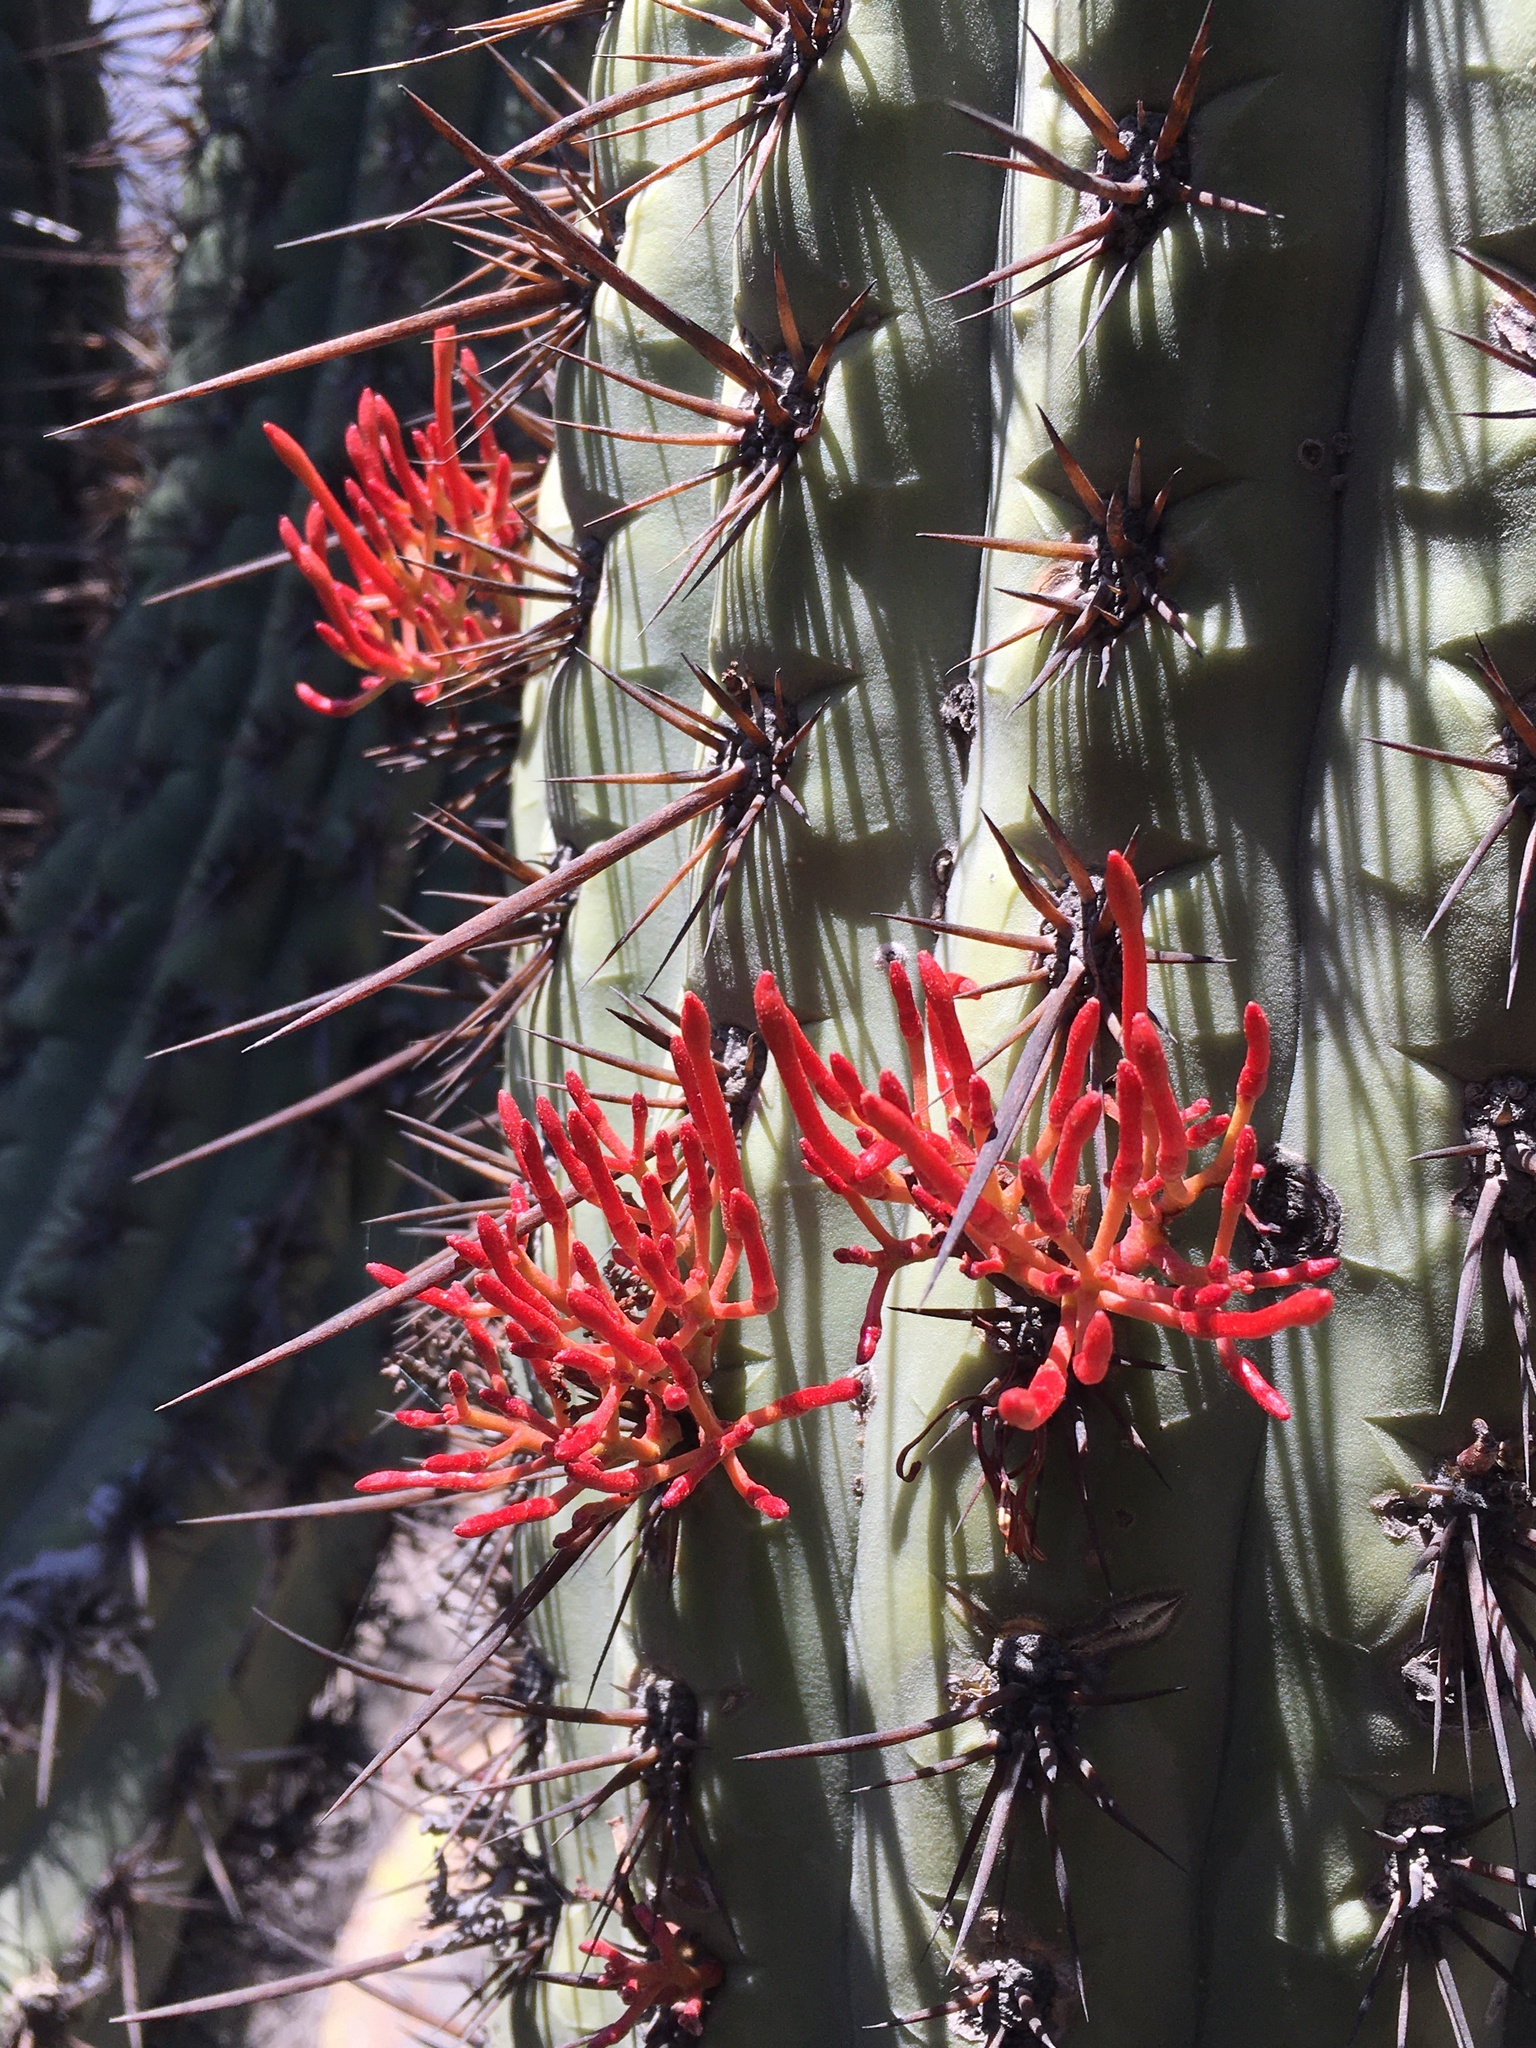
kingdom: Plantae
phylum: Tracheophyta
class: Magnoliopsida
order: Santalales
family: Loranthaceae
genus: Tristerix
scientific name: Tristerix aphyllus
